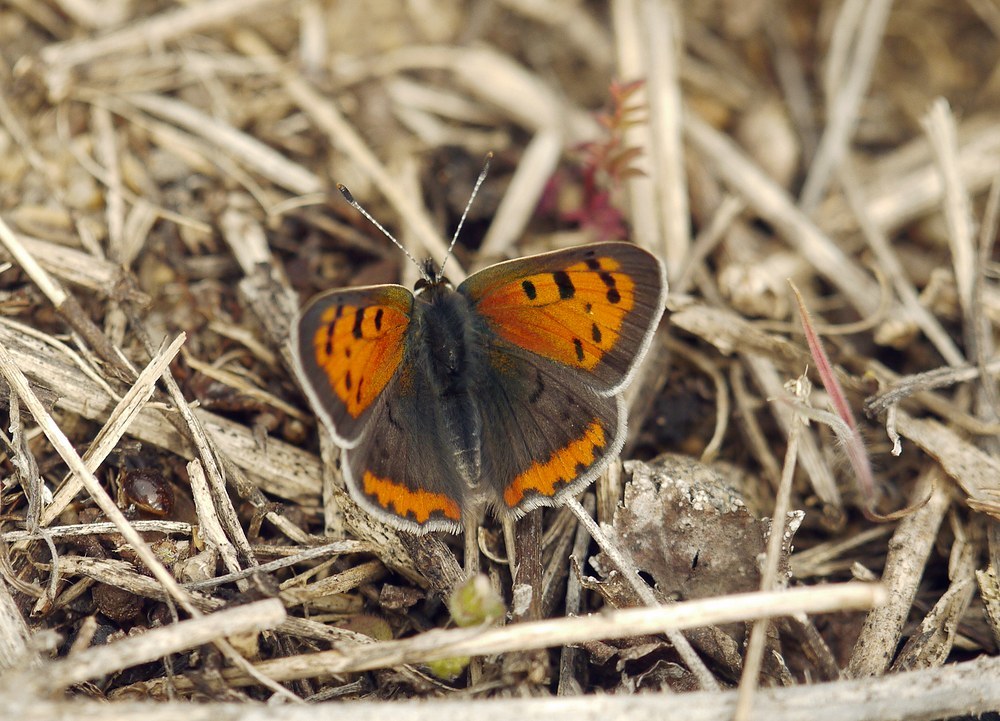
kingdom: Animalia
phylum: Arthropoda
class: Insecta
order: Lepidoptera
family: Lycaenidae
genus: Lycaena
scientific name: Lycaena phlaeas
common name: Small copper
